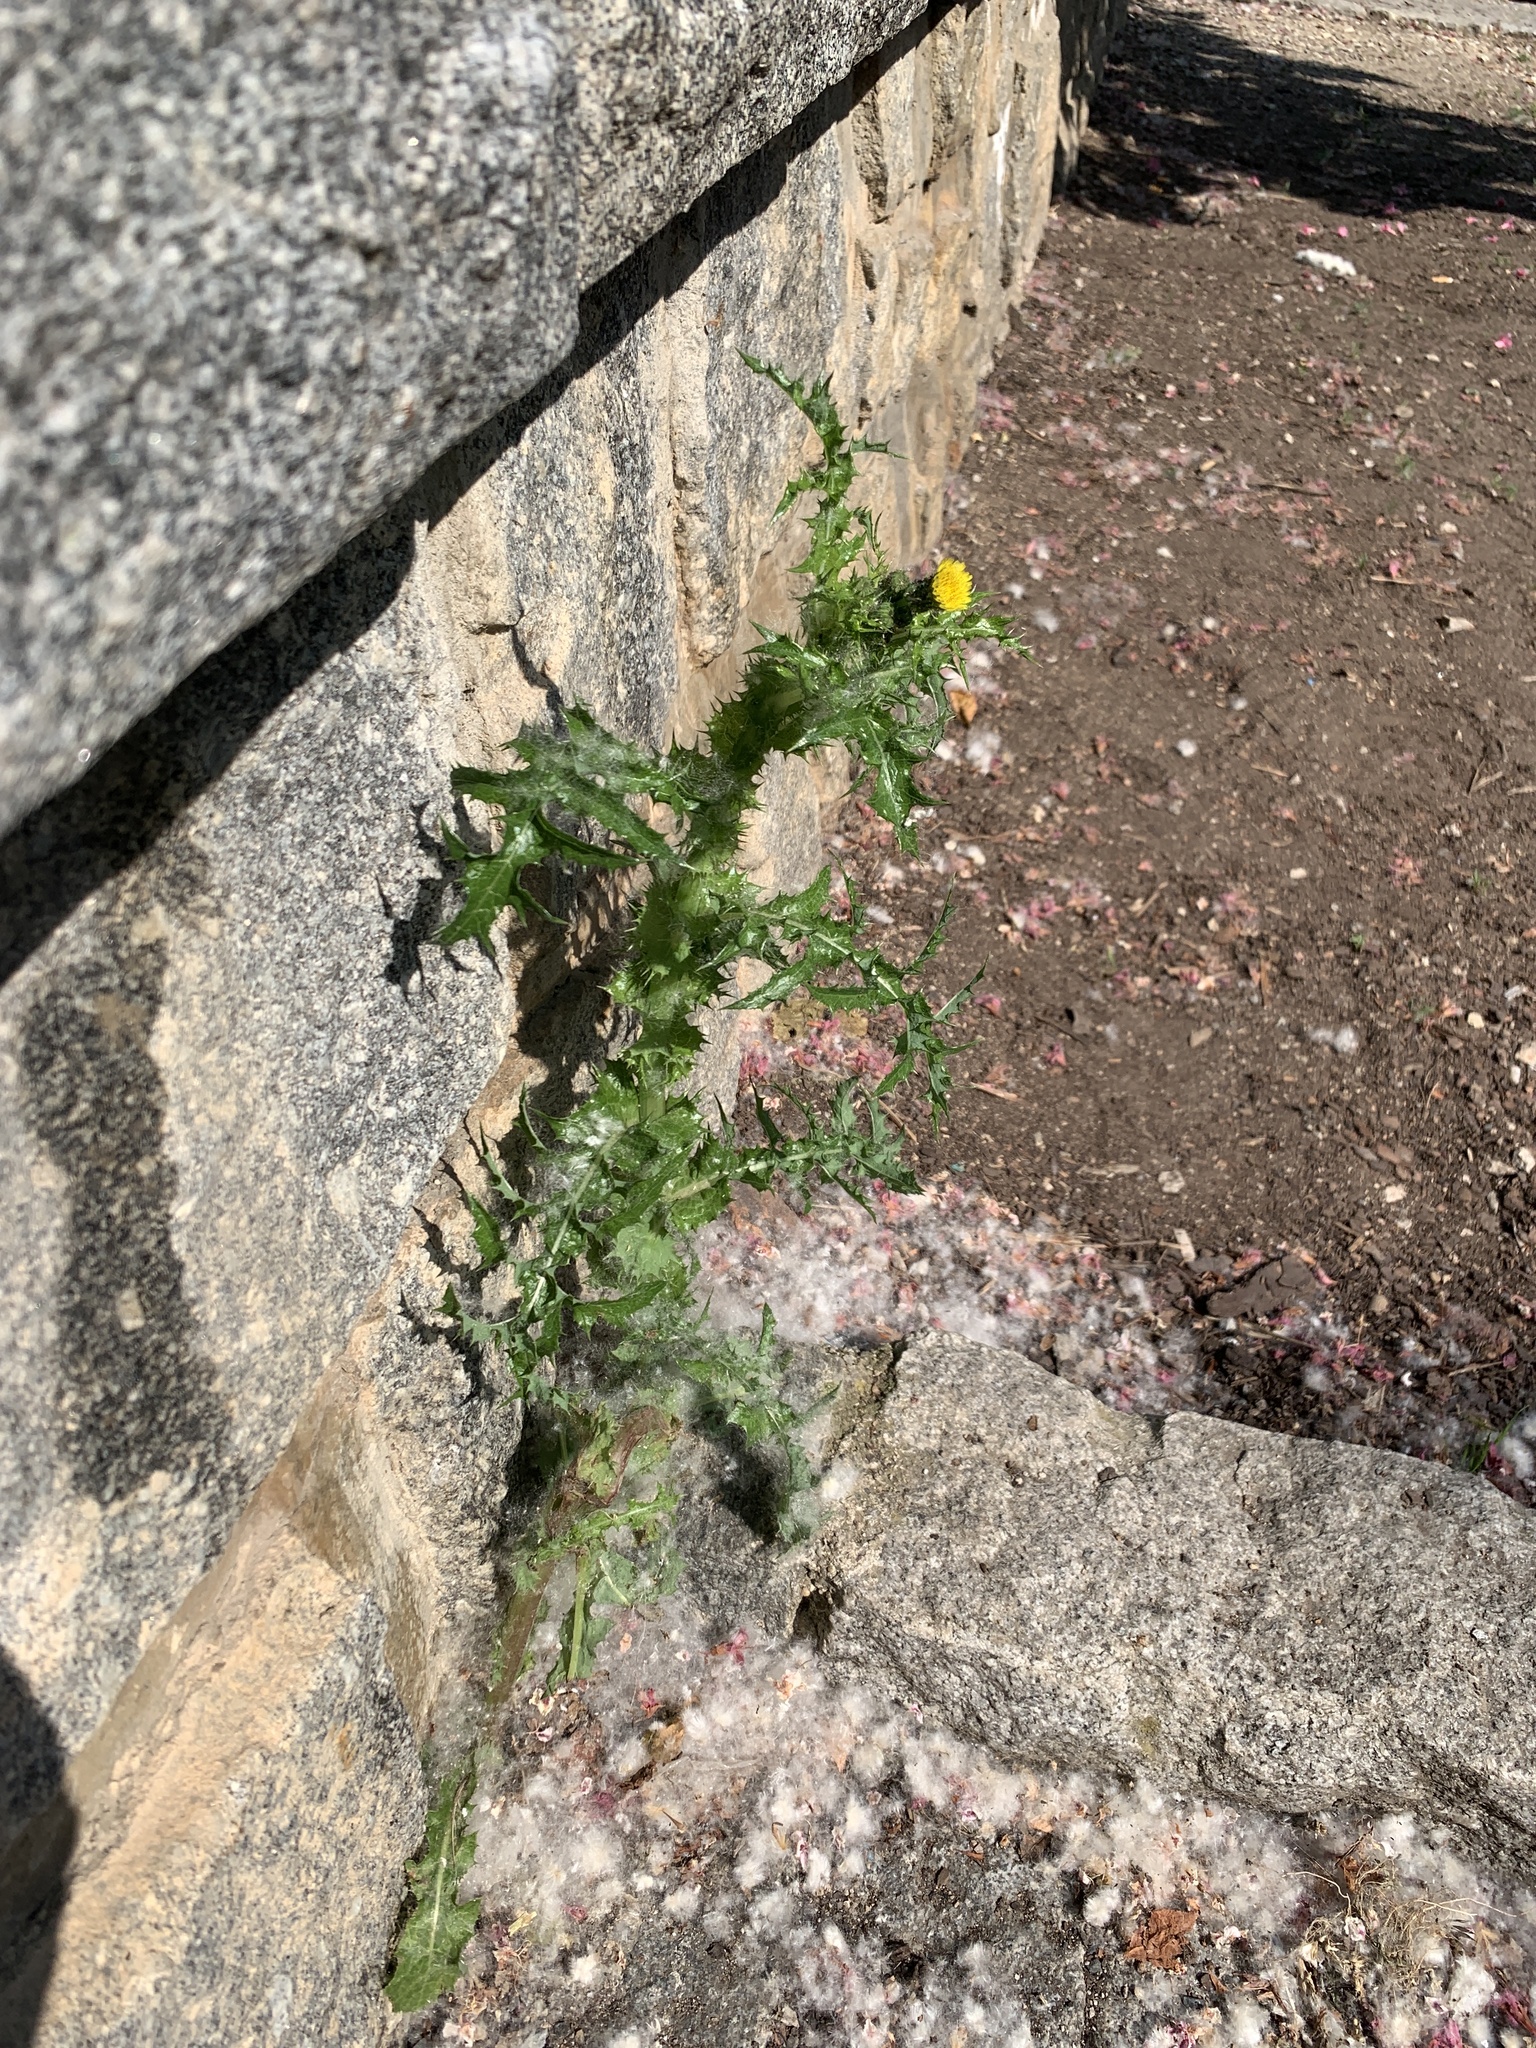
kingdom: Plantae
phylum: Tracheophyta
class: Magnoliopsida
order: Asterales
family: Asteraceae
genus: Sonchus
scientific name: Sonchus asper
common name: Prickly sow-thistle
